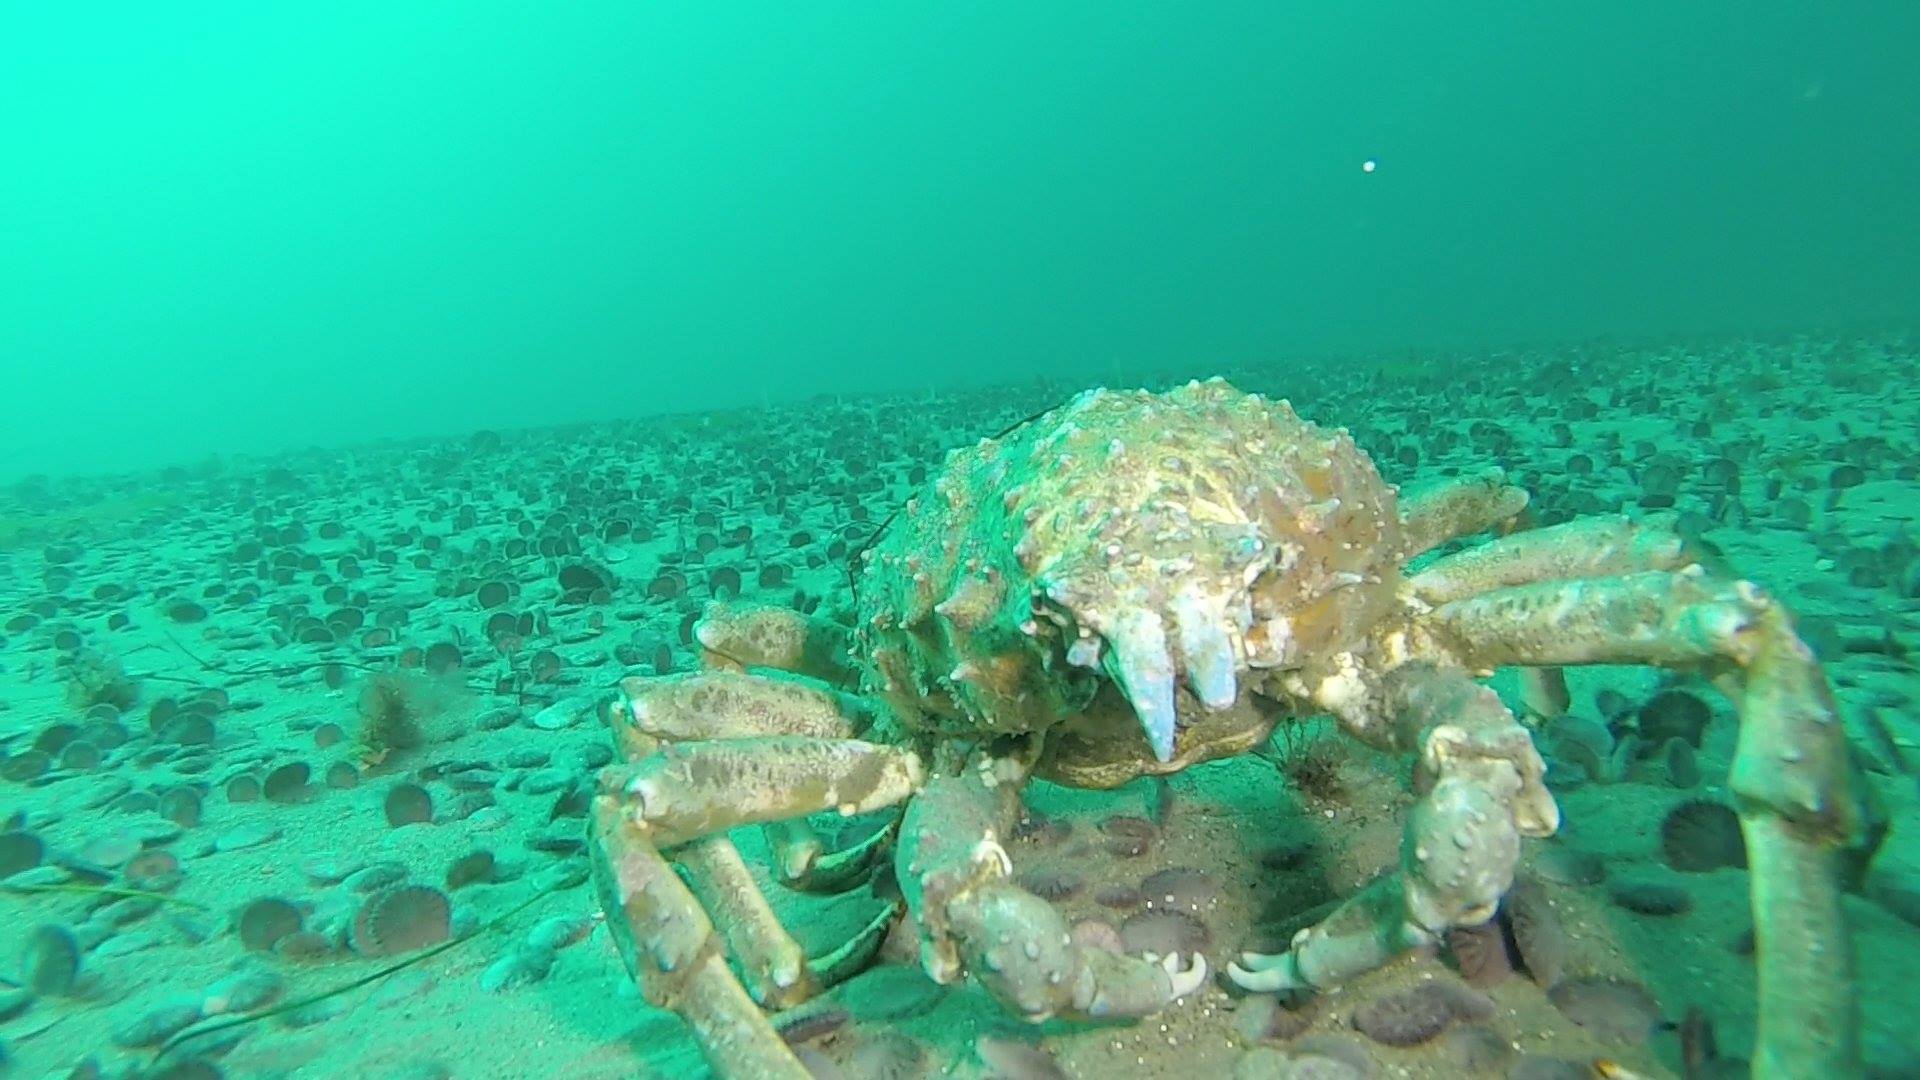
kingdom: Animalia
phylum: Arthropoda
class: Malacostraca
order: Decapoda
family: Epialtidae
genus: Loxorhynchus
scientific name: Loxorhynchus grandis
